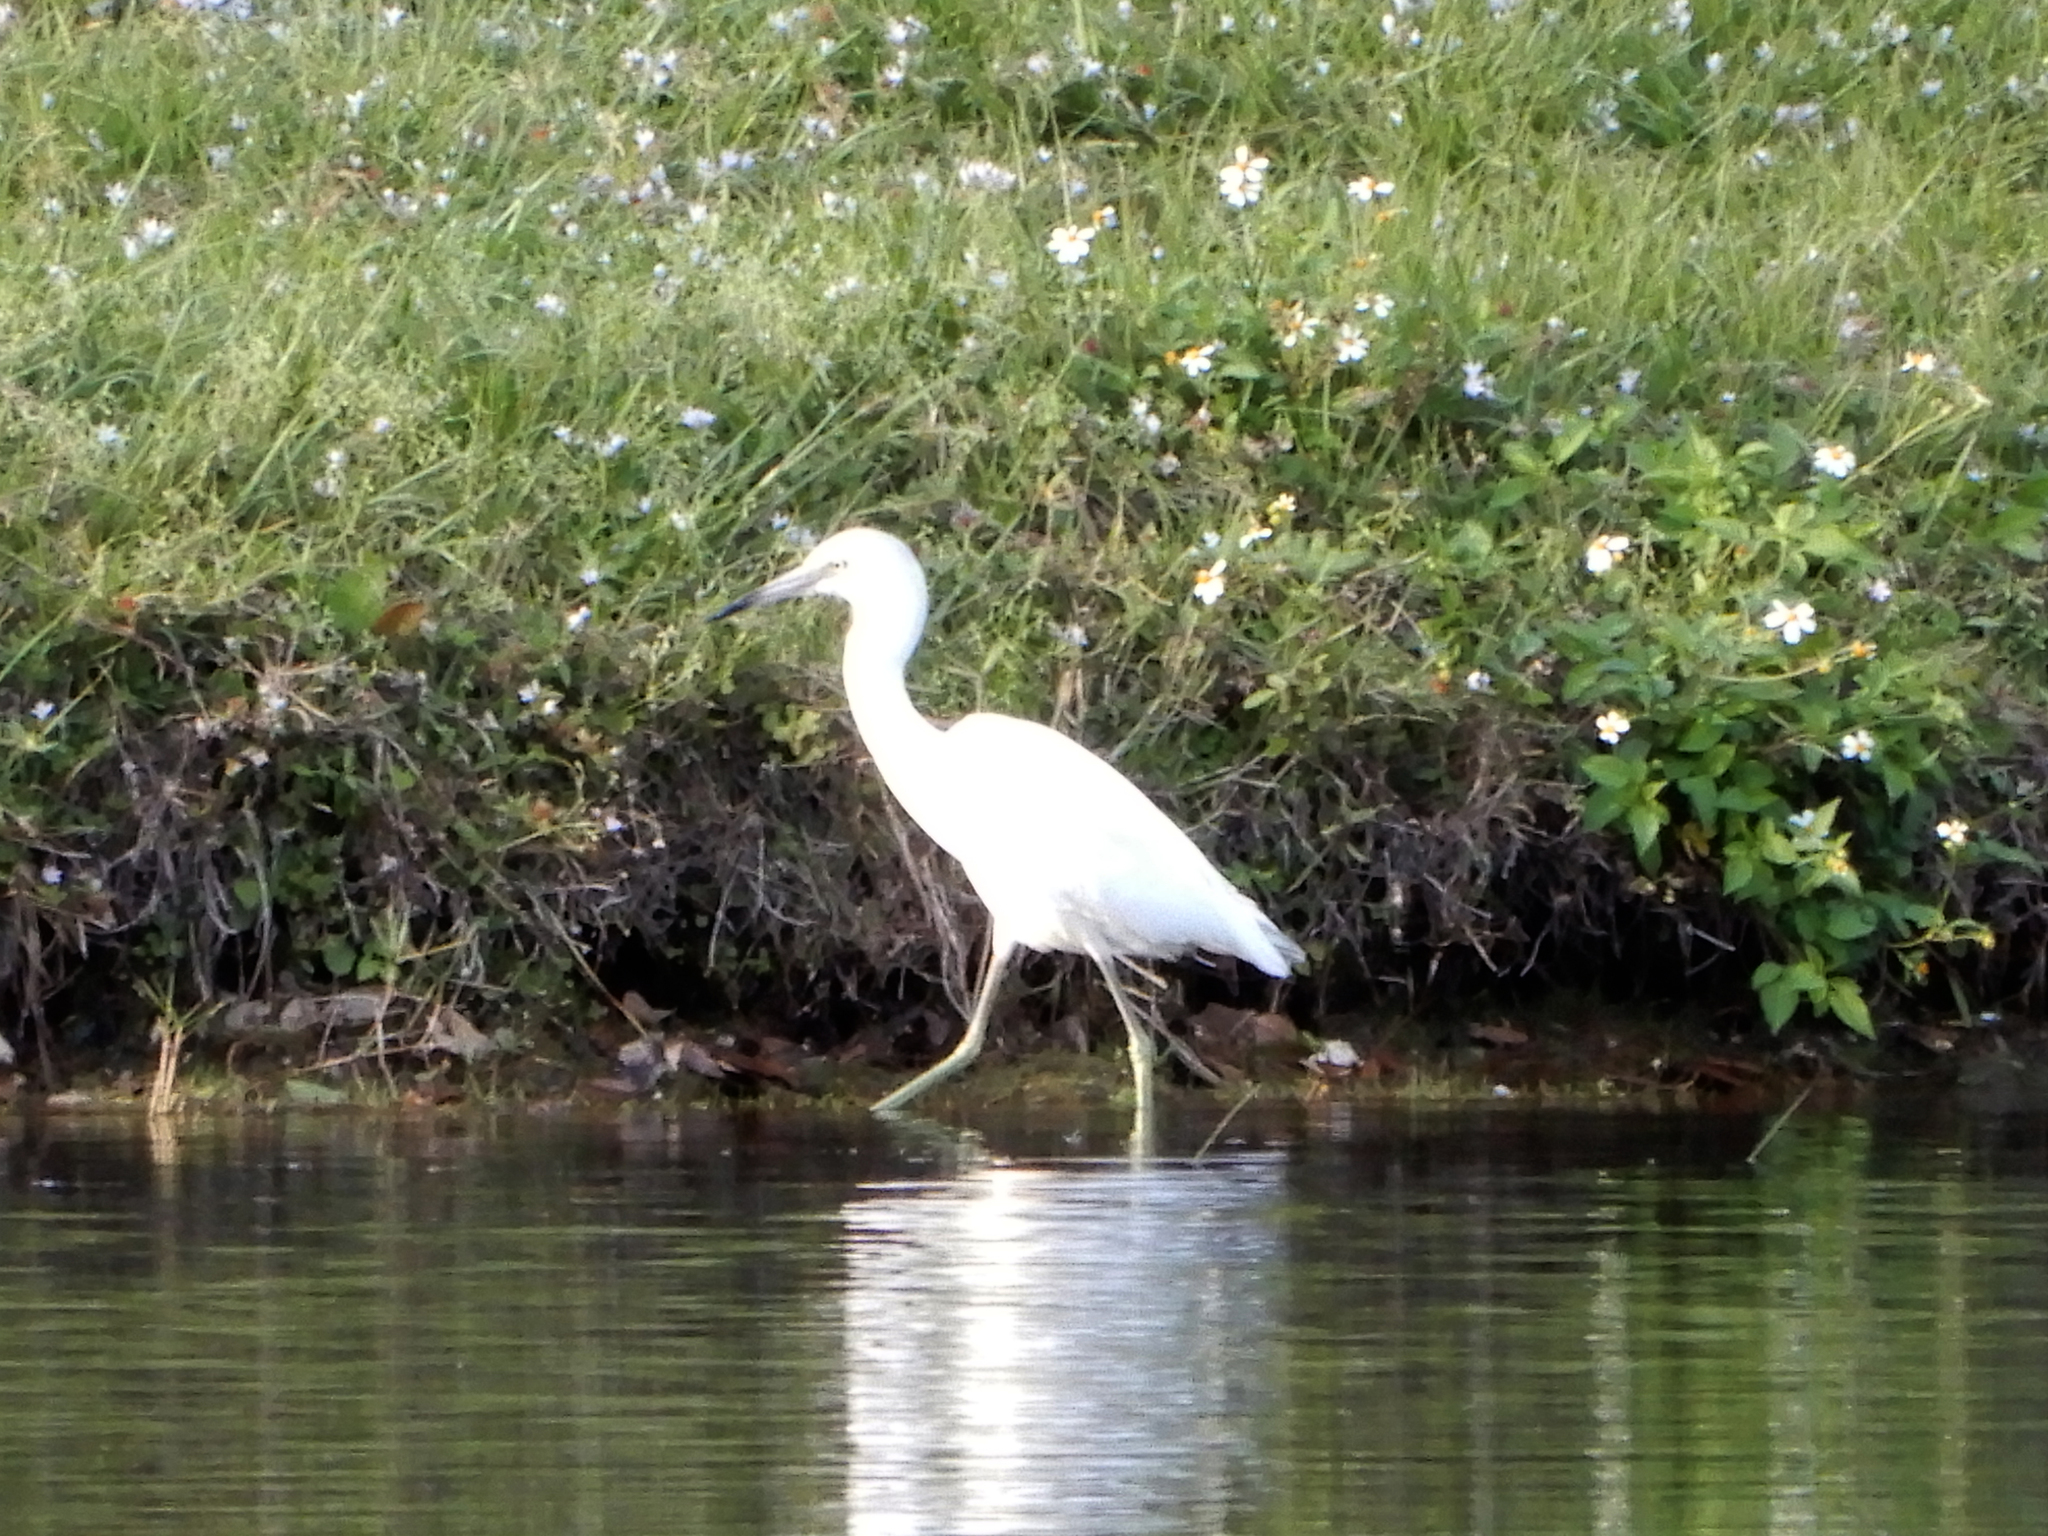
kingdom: Animalia
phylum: Chordata
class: Aves
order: Pelecaniformes
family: Ardeidae
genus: Egretta
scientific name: Egretta caerulea
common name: Little blue heron
